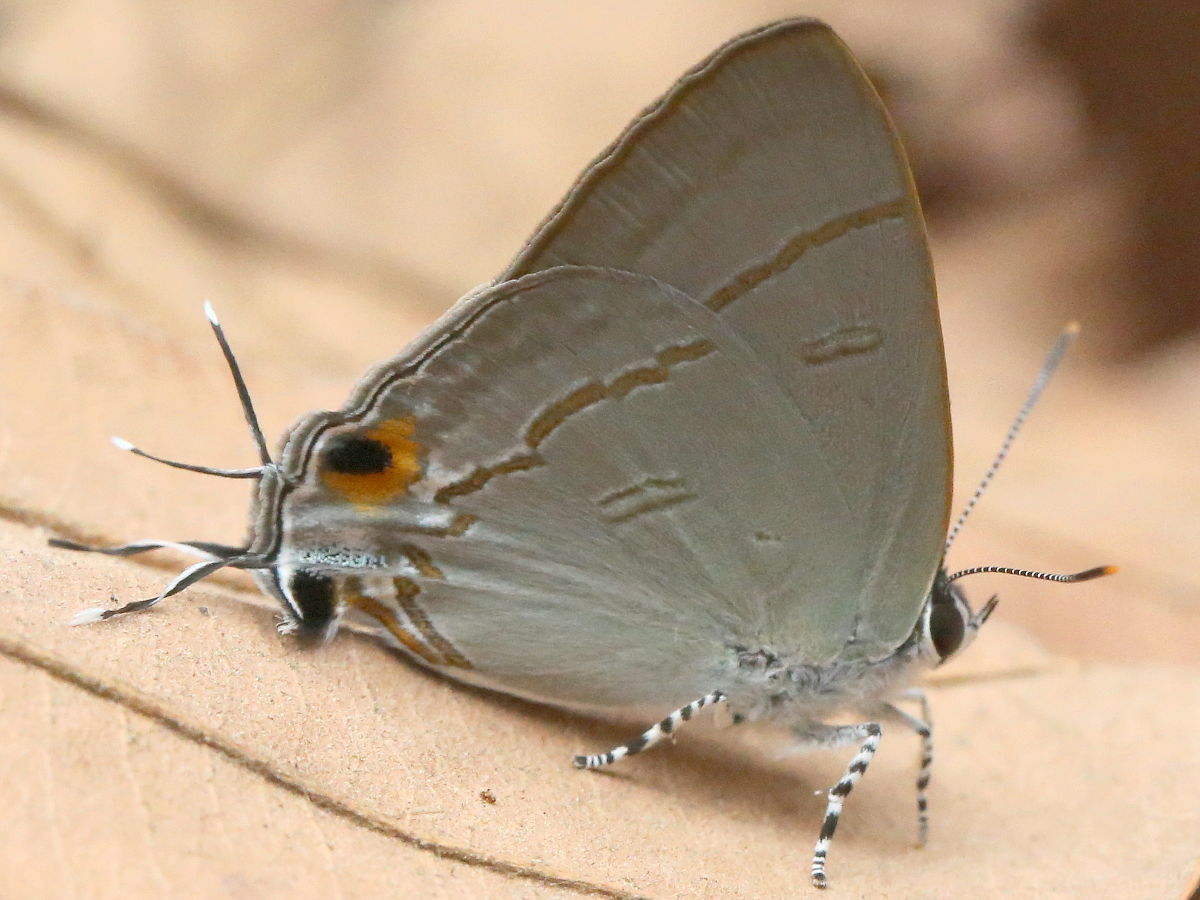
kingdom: Animalia
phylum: Arthropoda
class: Insecta
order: Lepidoptera
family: Lycaenidae
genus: Hypolycaena
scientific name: Hypolycaena erylus
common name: Common tit
